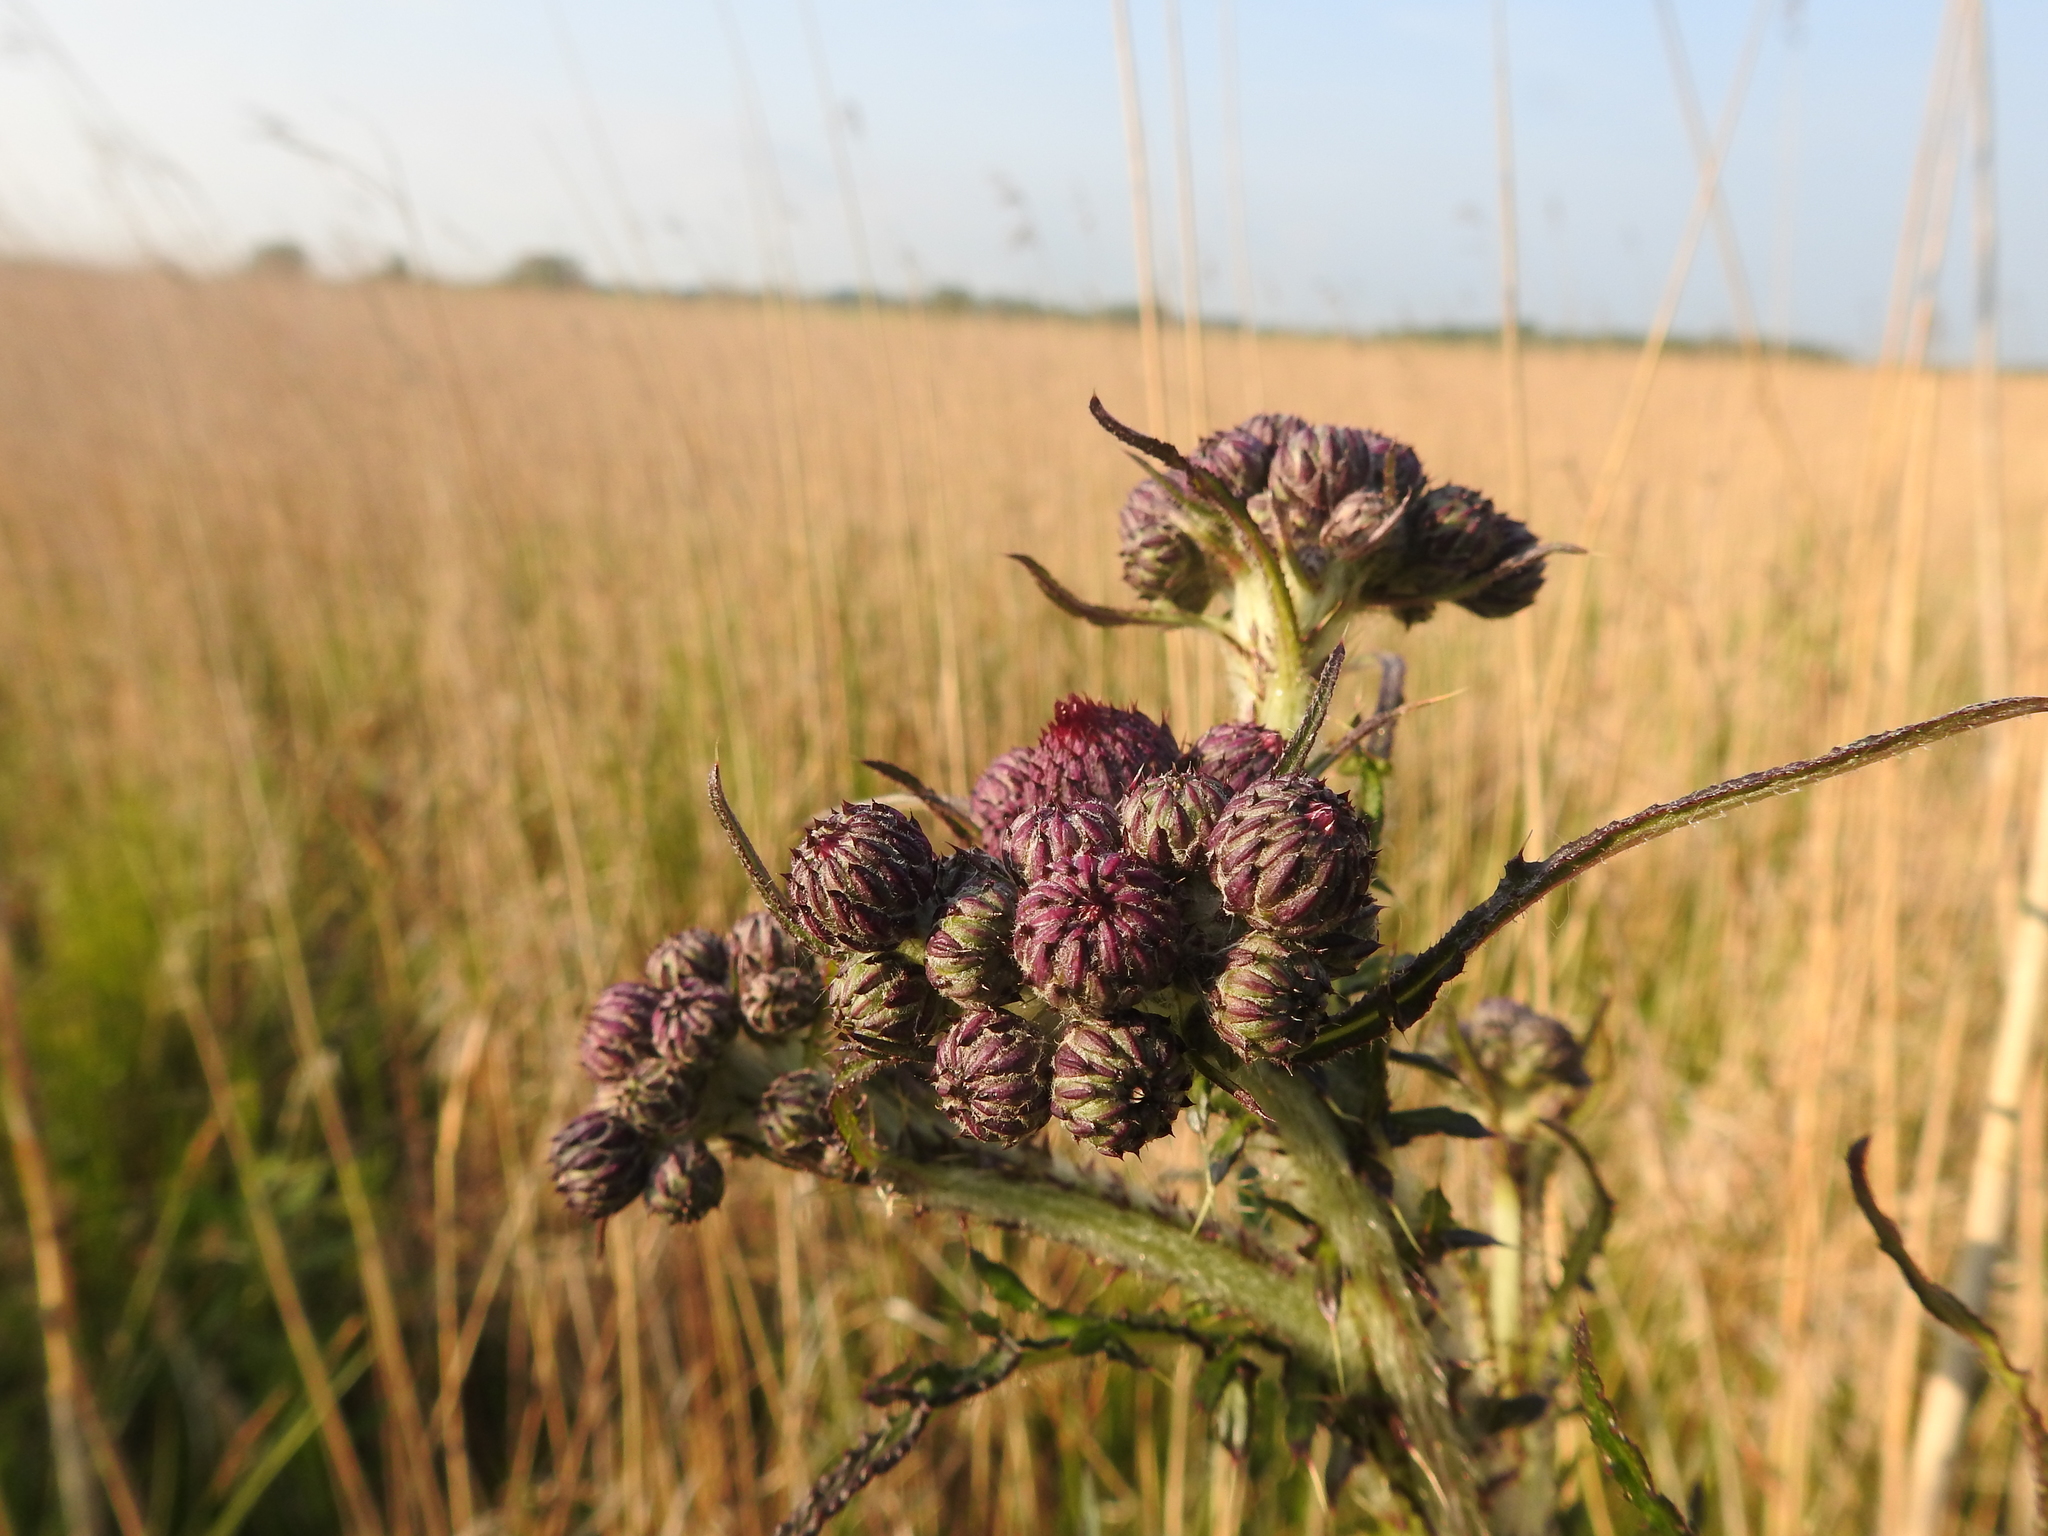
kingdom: Plantae
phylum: Tracheophyta
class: Magnoliopsida
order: Asterales
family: Asteraceae
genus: Cirsium
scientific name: Cirsium palustre
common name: Marsh thistle
